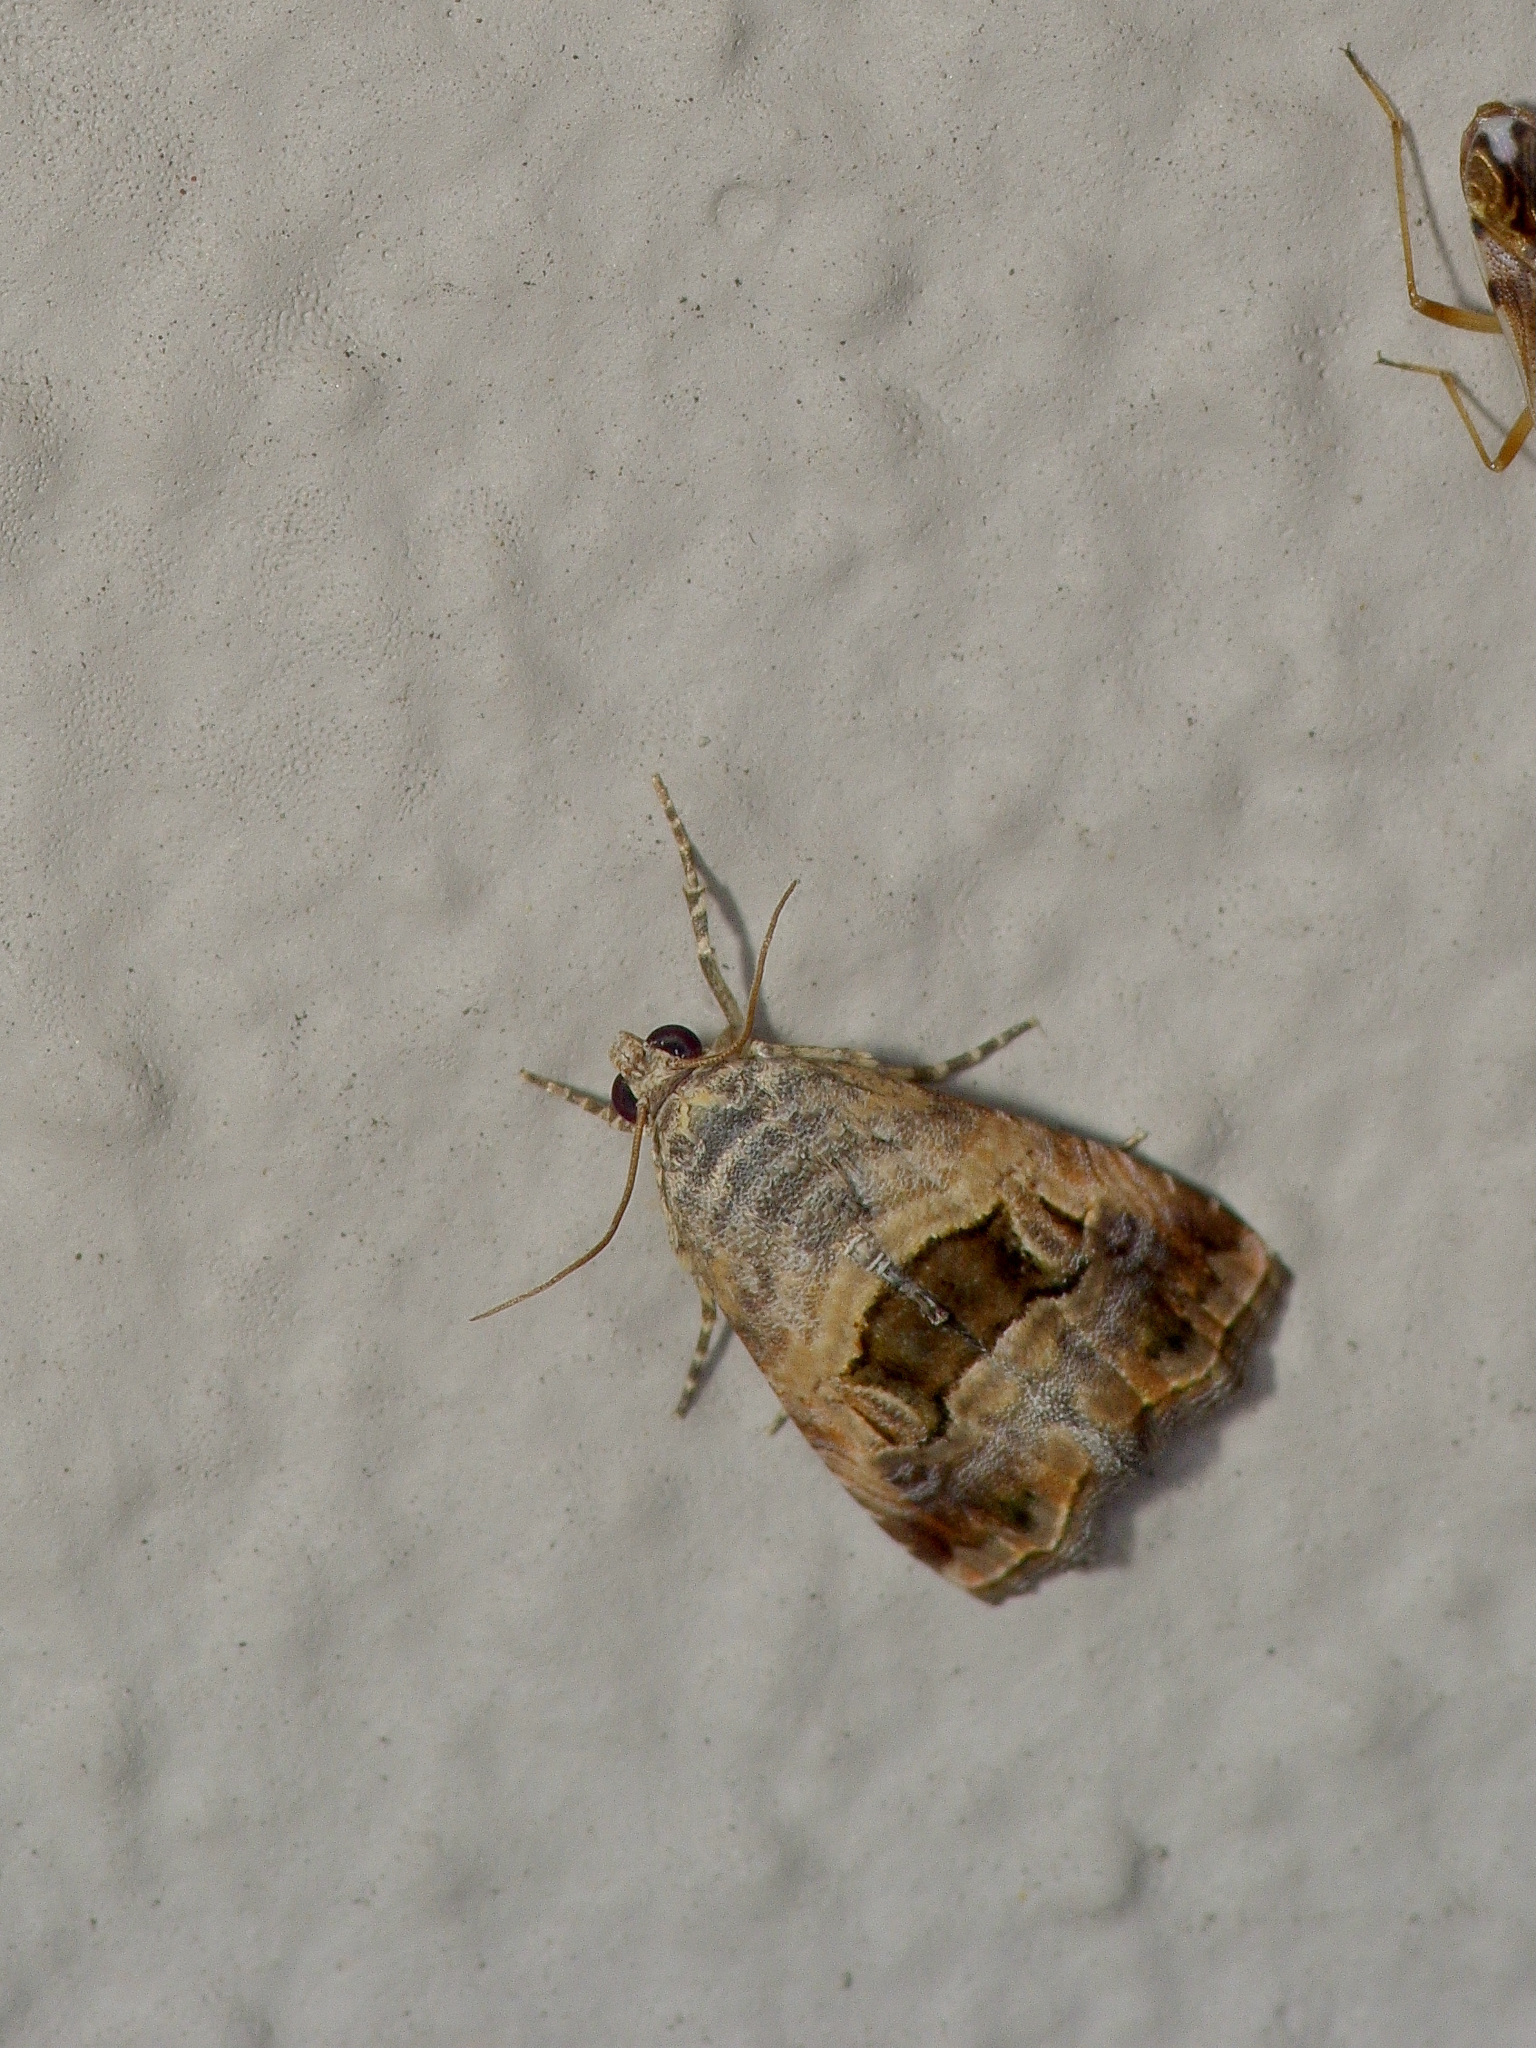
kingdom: Animalia
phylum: Arthropoda
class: Insecta
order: Lepidoptera
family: Noctuidae
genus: Tripudia
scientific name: Tripudia quadrifera
